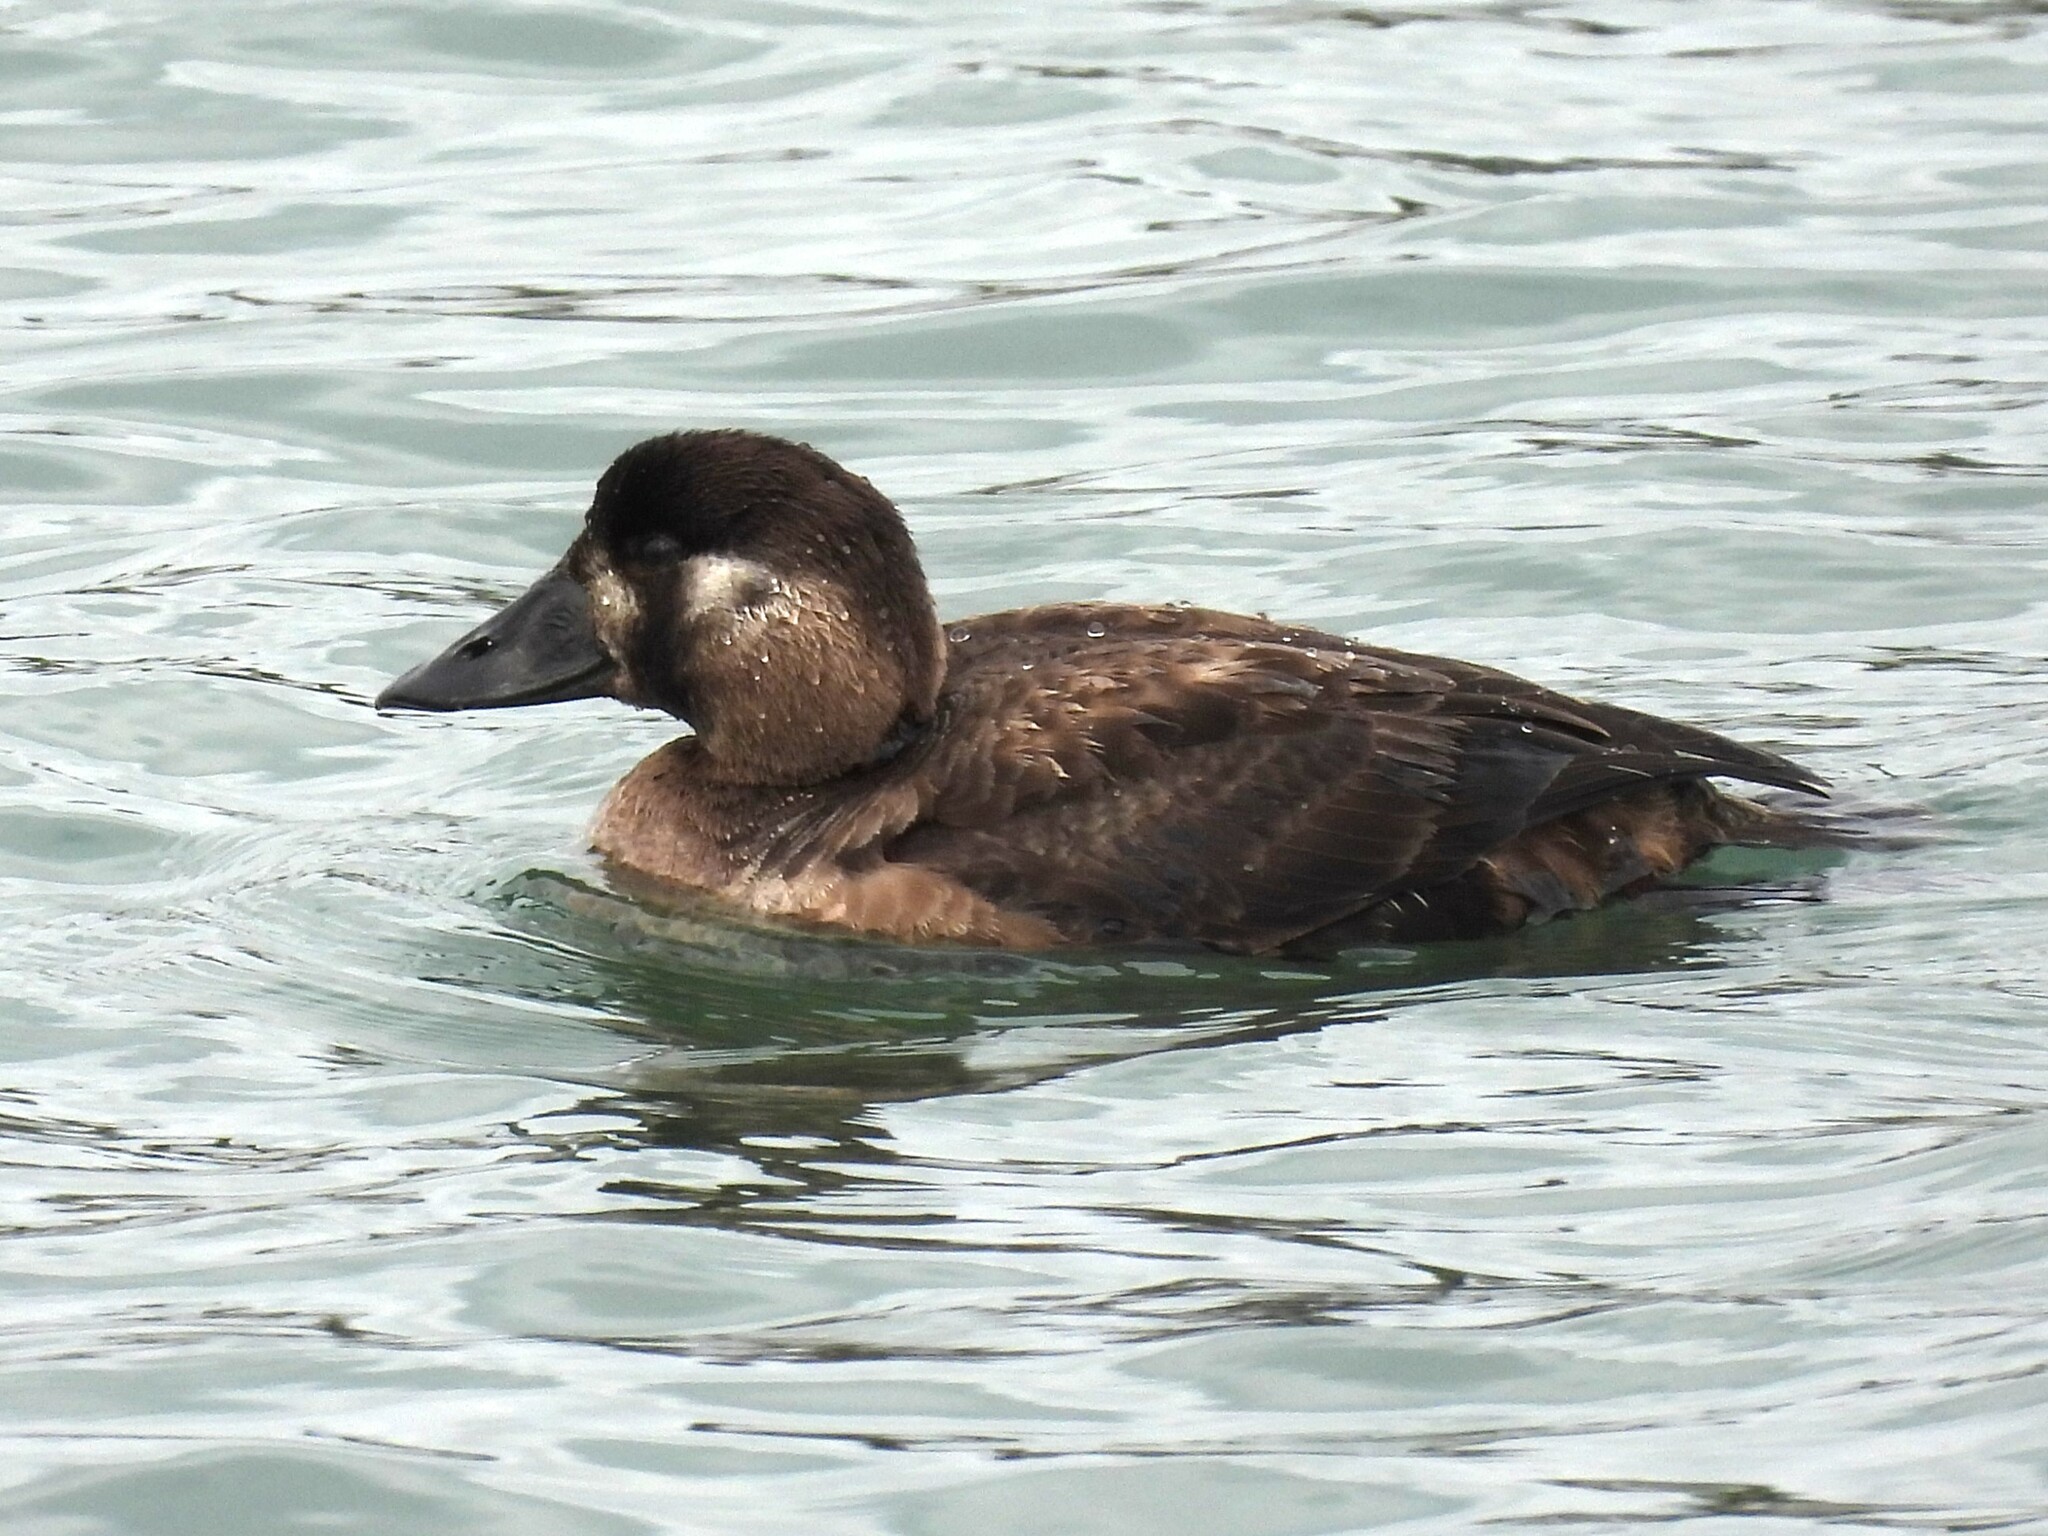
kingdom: Animalia
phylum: Chordata
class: Aves
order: Anseriformes
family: Anatidae
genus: Melanitta
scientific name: Melanitta perspicillata
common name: Surf scoter
